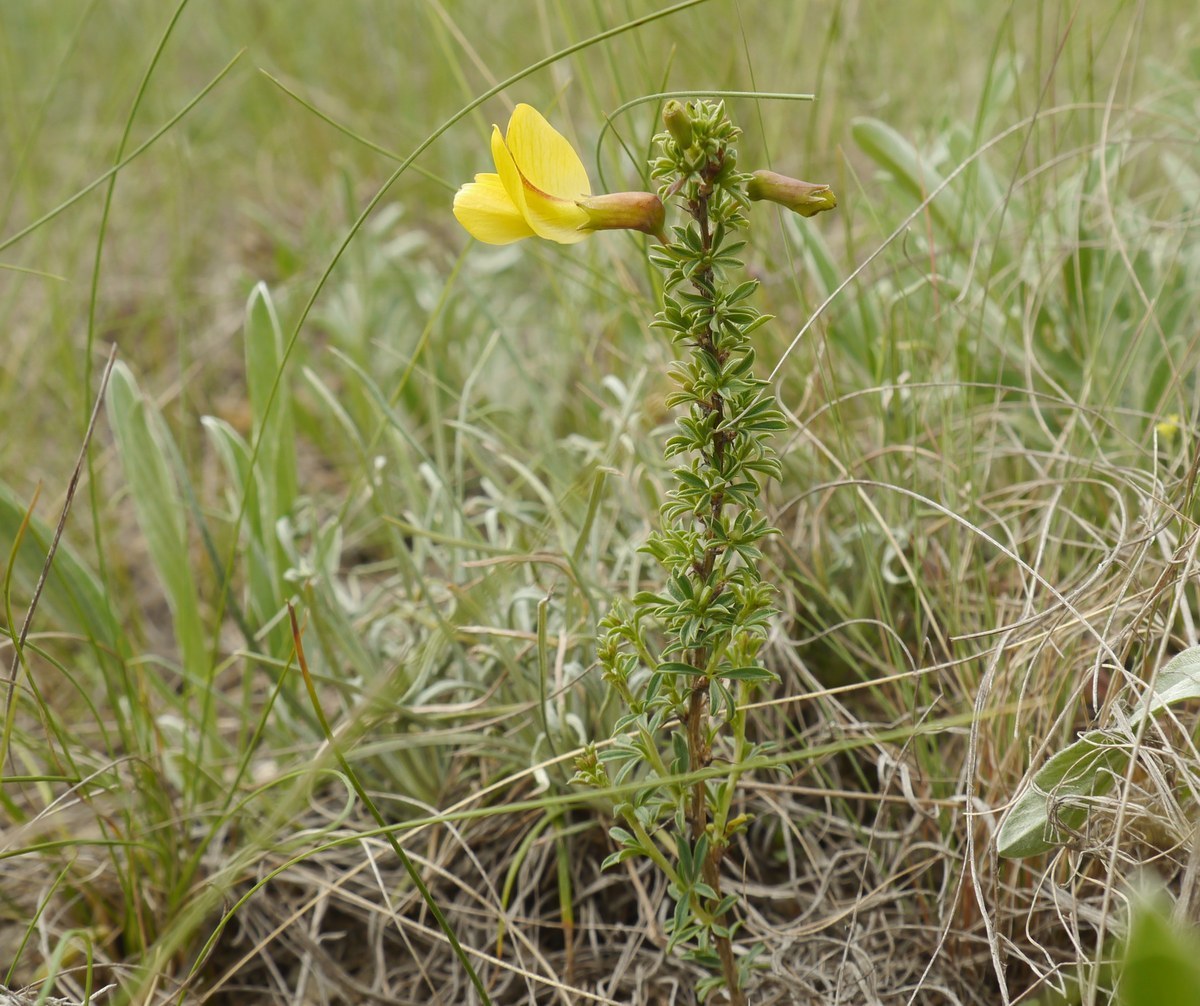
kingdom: Plantae
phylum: Tracheophyta
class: Magnoliopsida
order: Fabales
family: Fabaceae
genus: Caragana
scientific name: Caragana scythica
